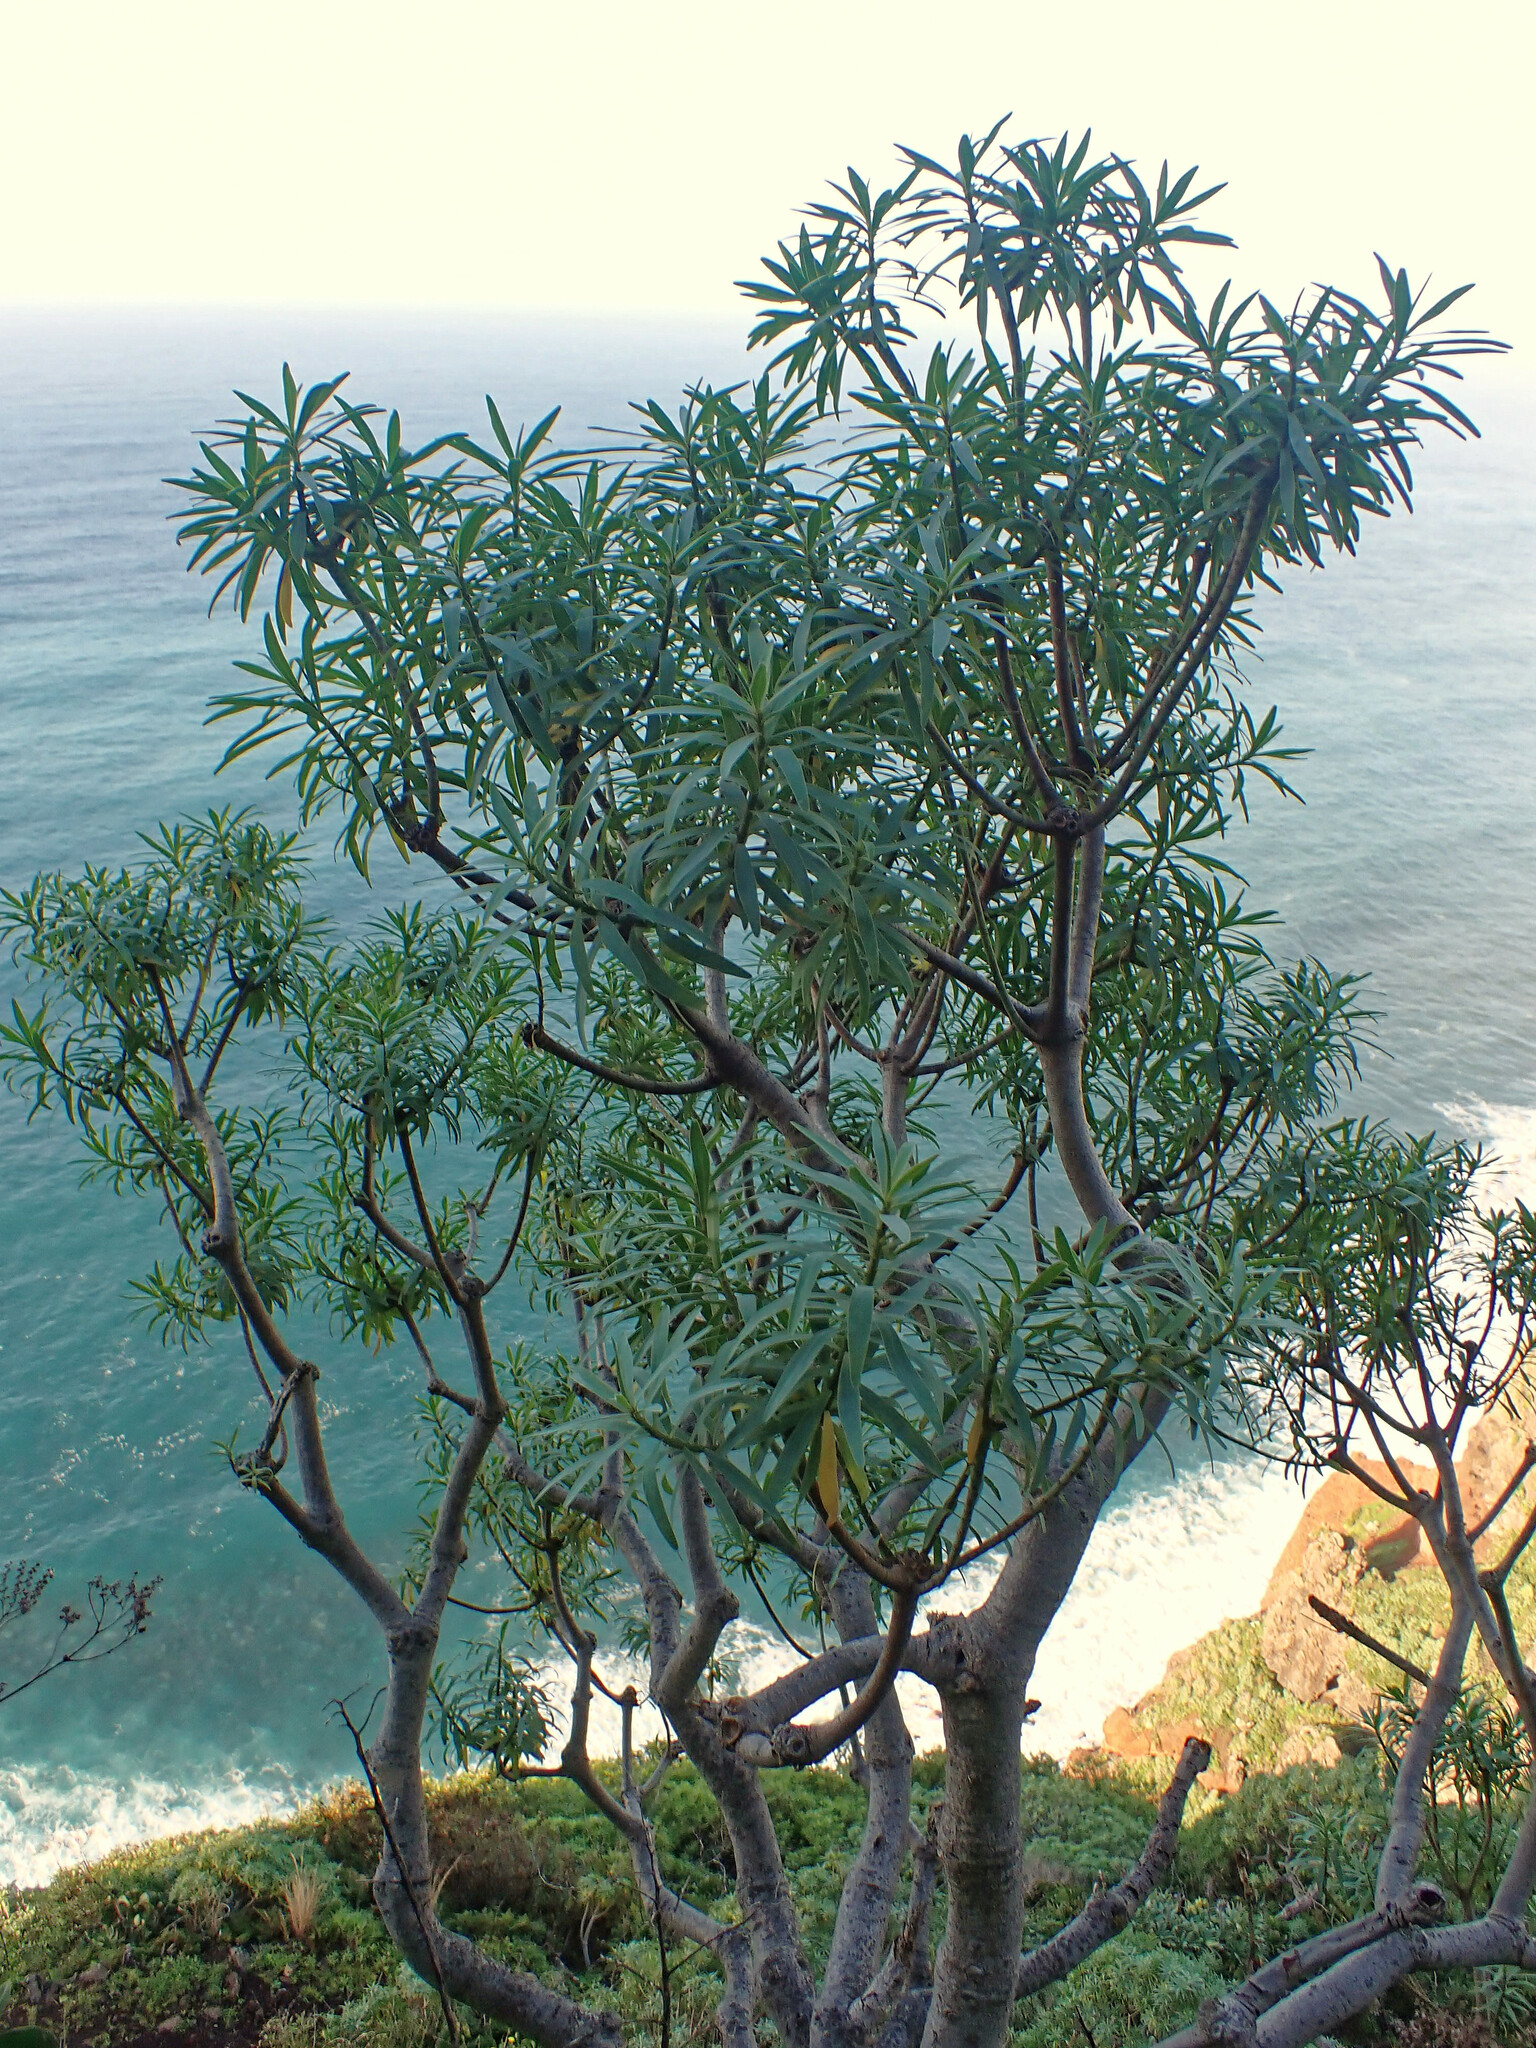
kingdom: Plantae
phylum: Tracheophyta
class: Magnoliopsida
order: Malpighiales
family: Euphorbiaceae
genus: Euphorbia
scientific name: Euphorbia piscatoria
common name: Fish-stunning spurge
